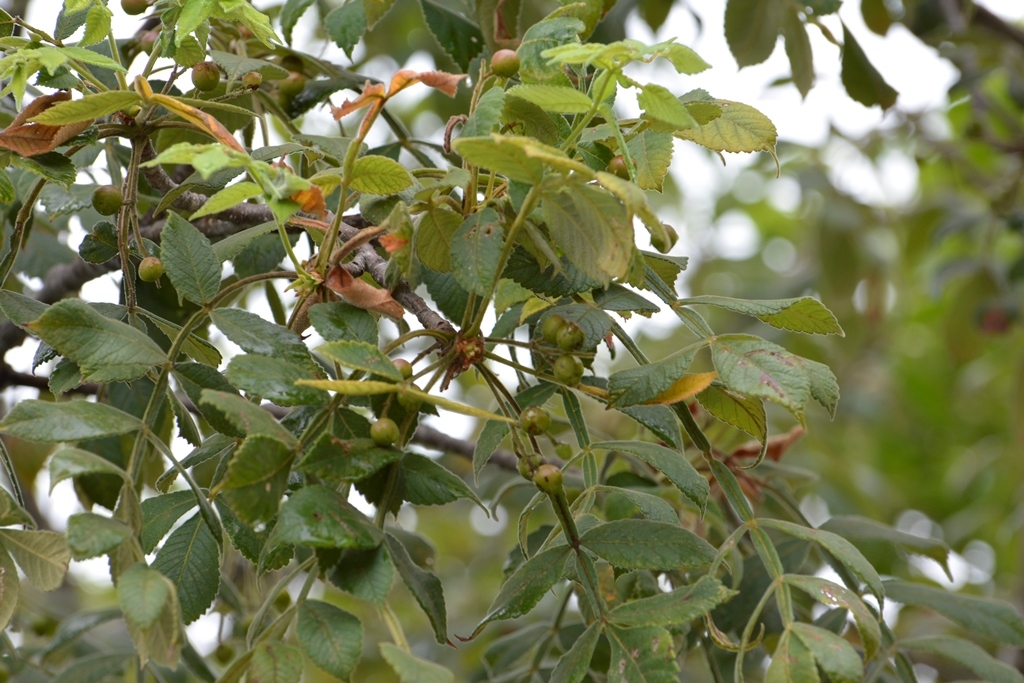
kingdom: Plantae
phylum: Tracheophyta
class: Magnoliopsida
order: Sapindales
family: Burseraceae
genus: Bursera
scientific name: Bursera excelsa
